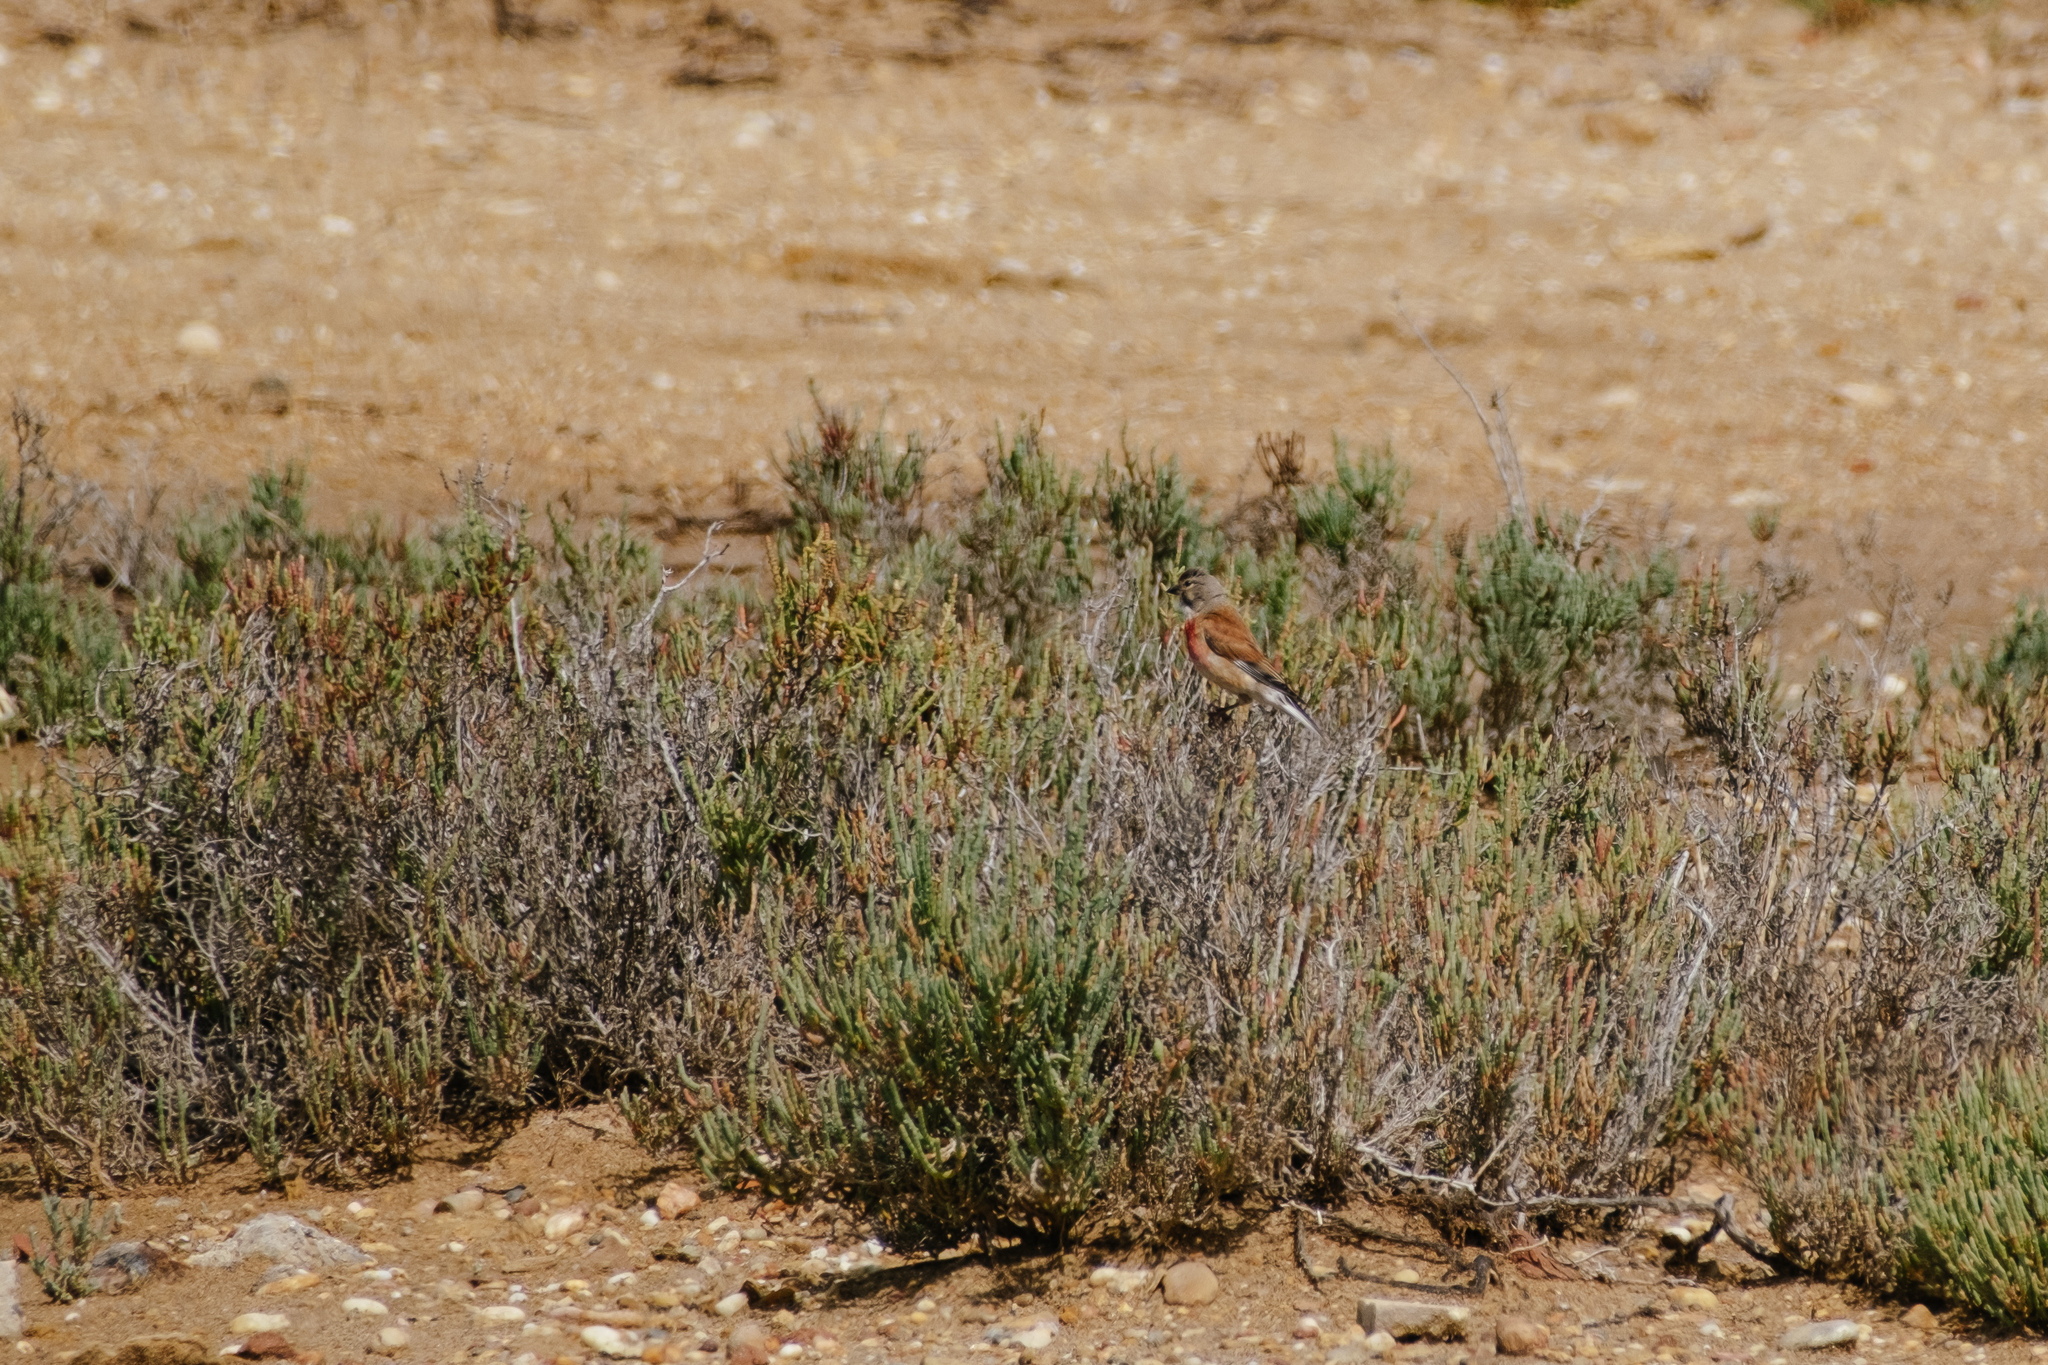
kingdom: Animalia
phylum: Chordata
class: Aves
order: Passeriformes
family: Fringillidae
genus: Linaria
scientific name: Linaria cannabina
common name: Common linnet
